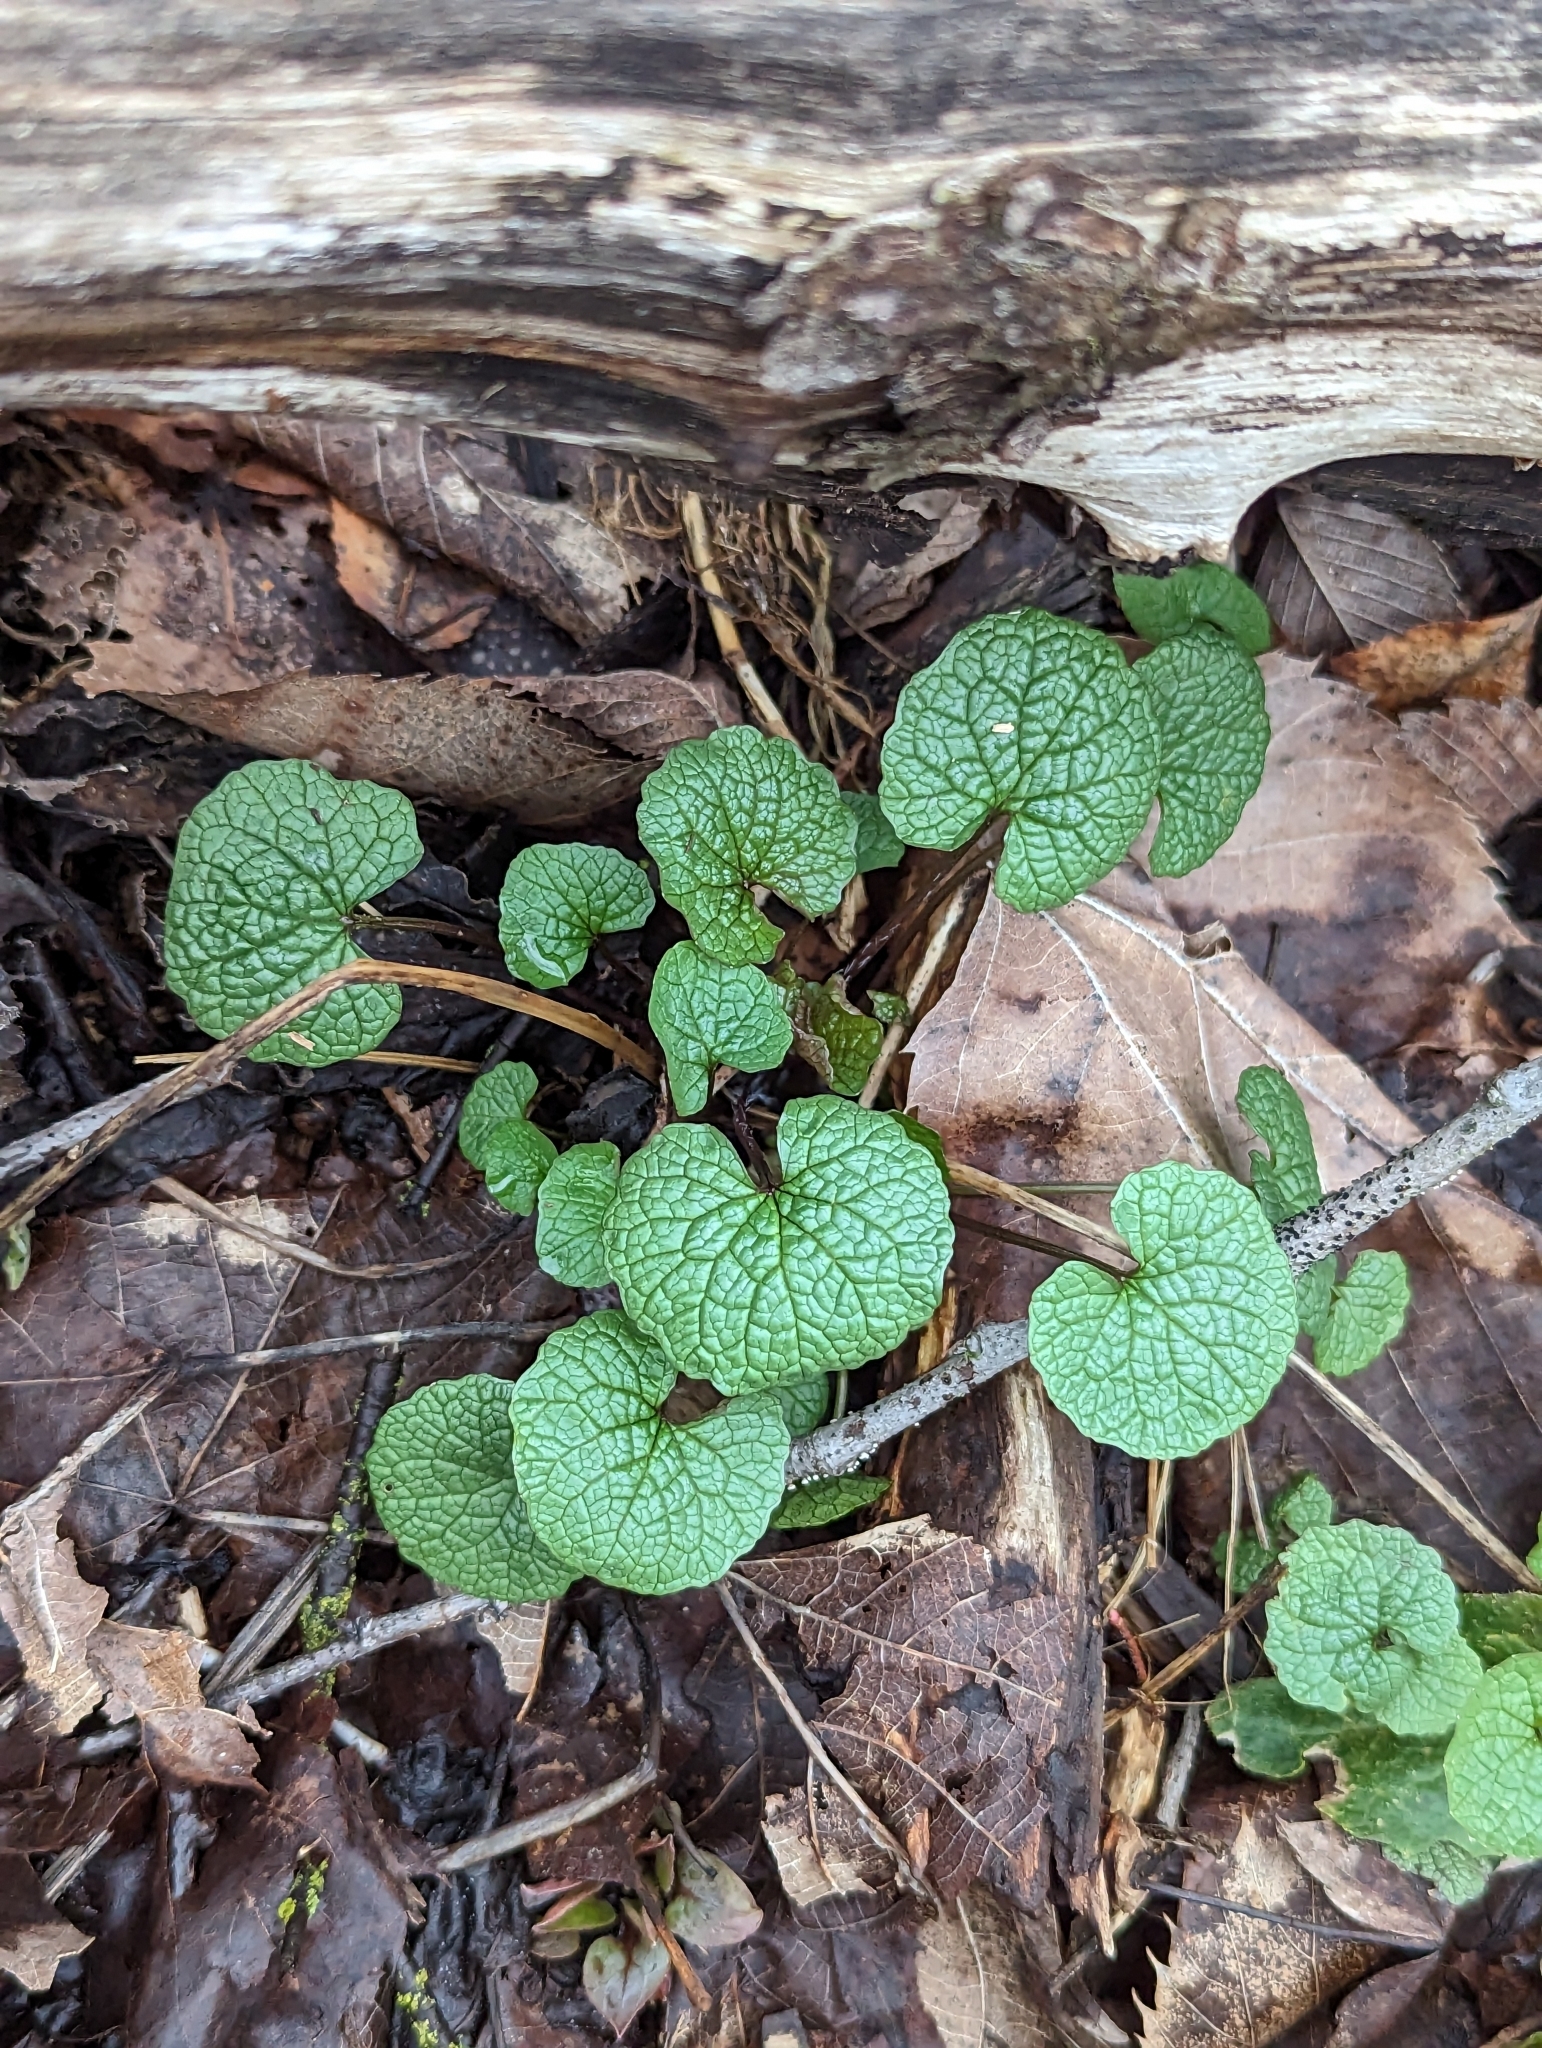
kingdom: Plantae
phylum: Tracheophyta
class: Magnoliopsida
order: Brassicales
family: Brassicaceae
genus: Alliaria
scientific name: Alliaria petiolata
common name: Garlic mustard
